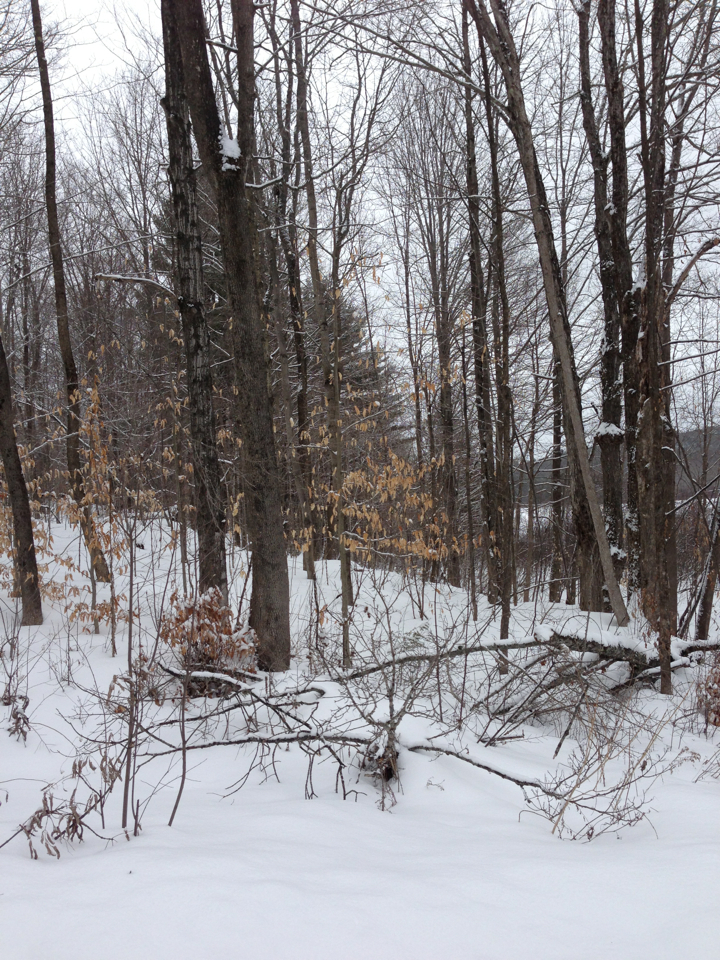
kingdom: Plantae
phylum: Tracheophyta
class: Magnoliopsida
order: Fagales
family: Fagaceae
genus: Fagus
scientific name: Fagus grandifolia
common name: American beech
